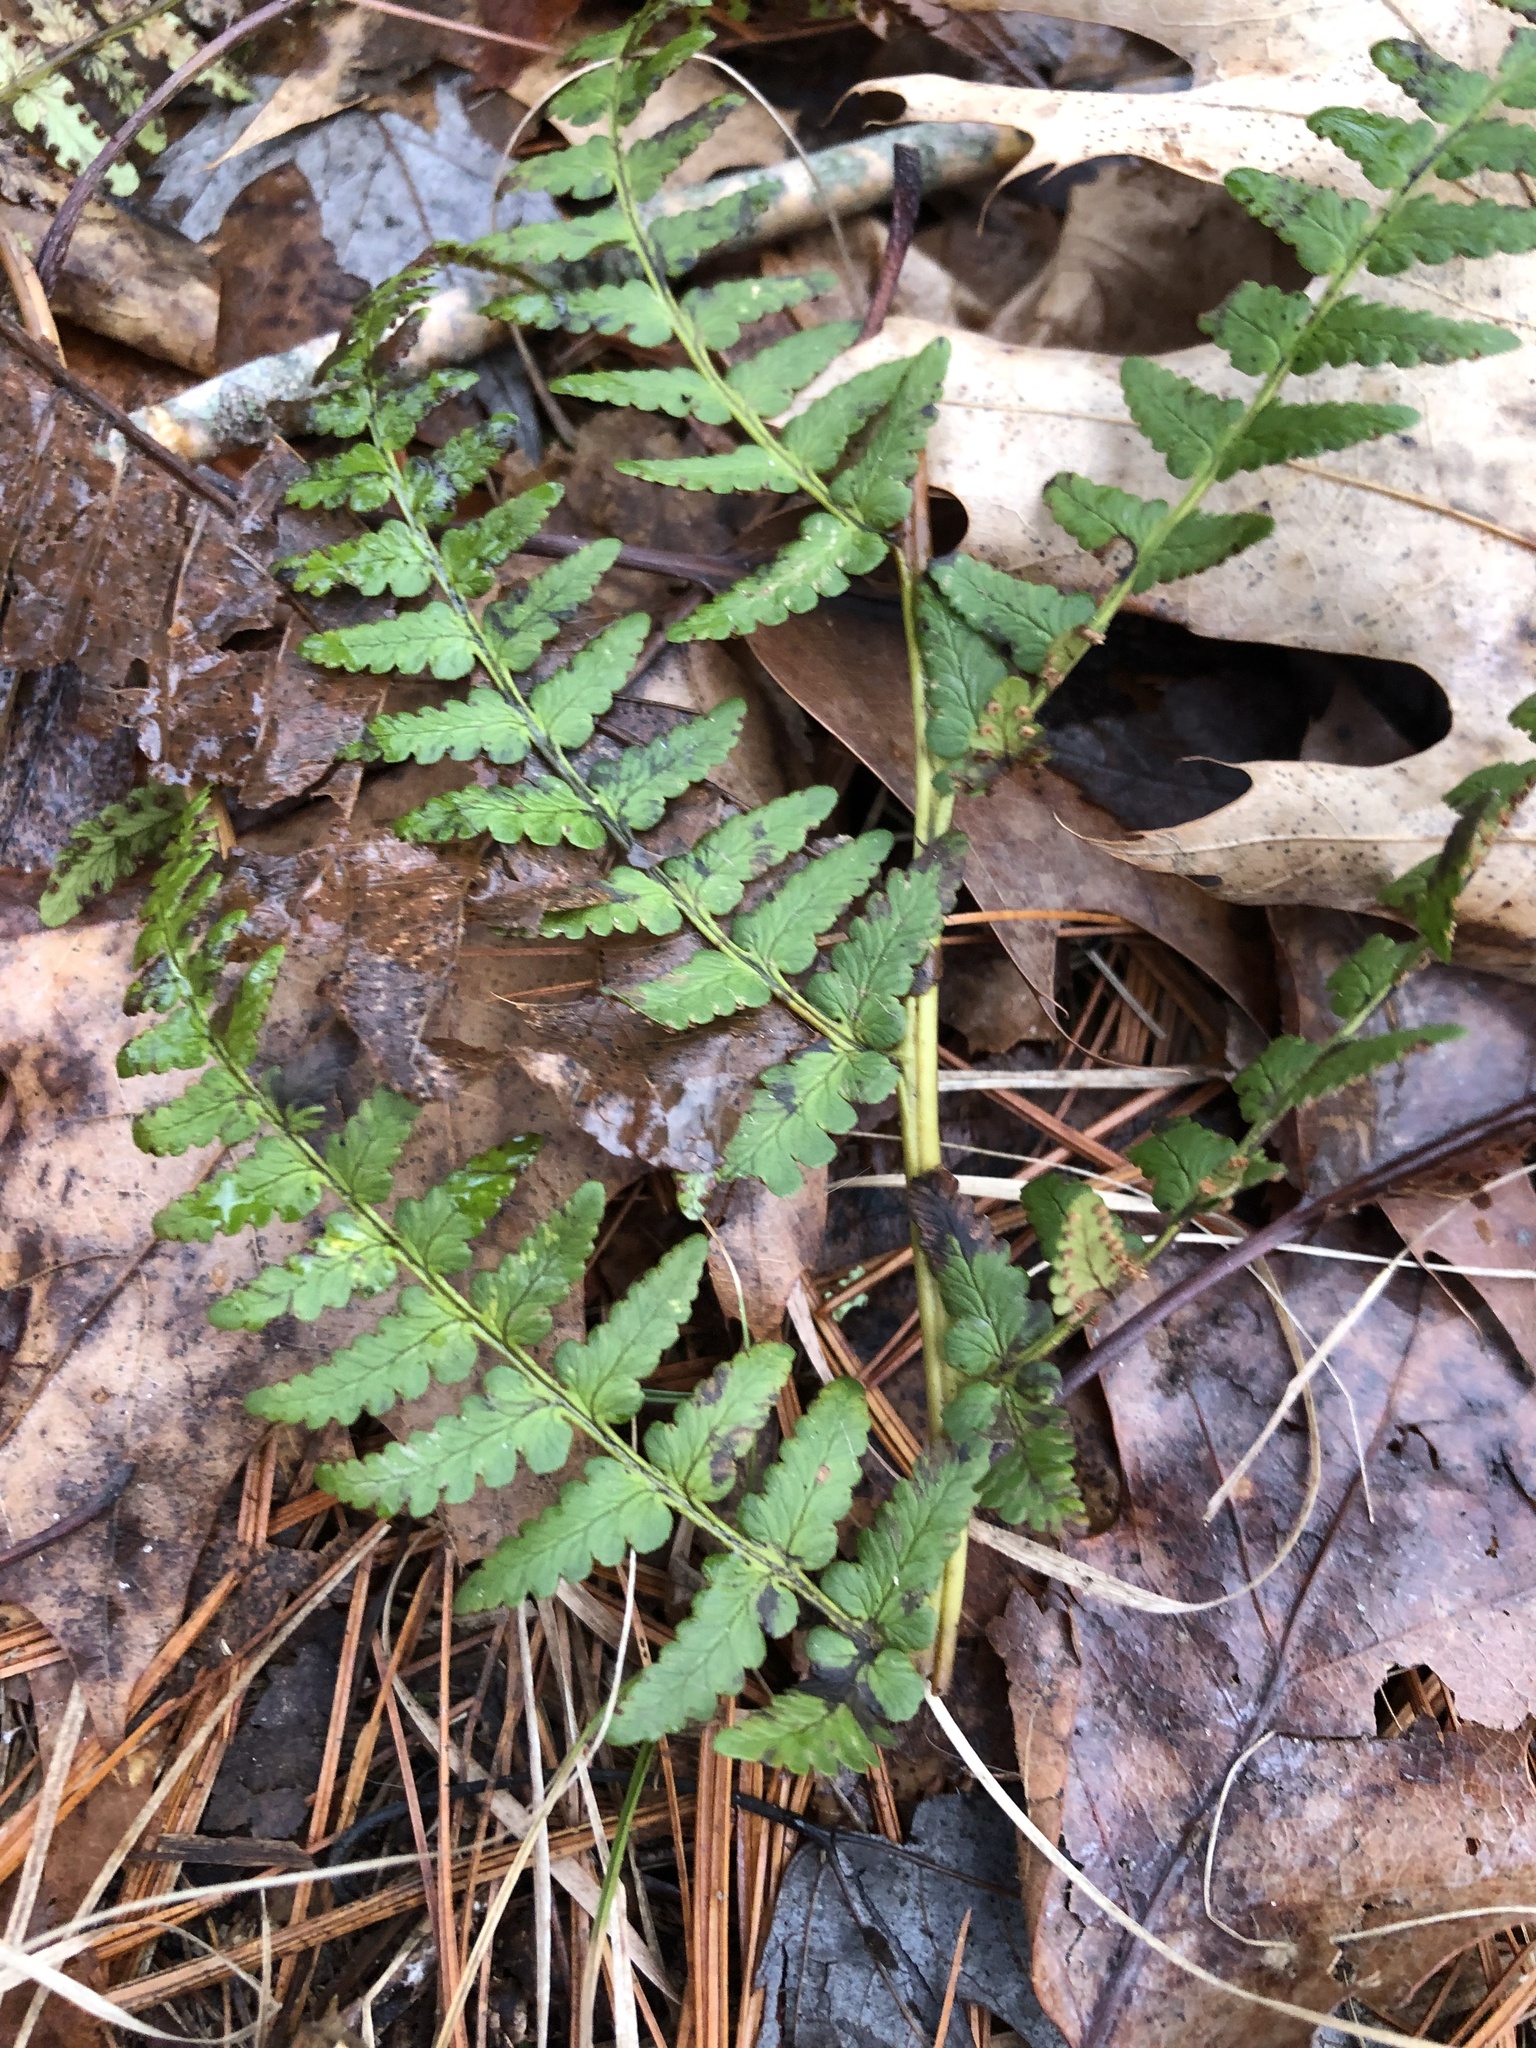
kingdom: Plantae
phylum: Tracheophyta
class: Polypodiopsida
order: Polypodiales
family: Dryopteridaceae
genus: Dryopteris
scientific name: Dryopteris marginalis
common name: Marginal wood fern
